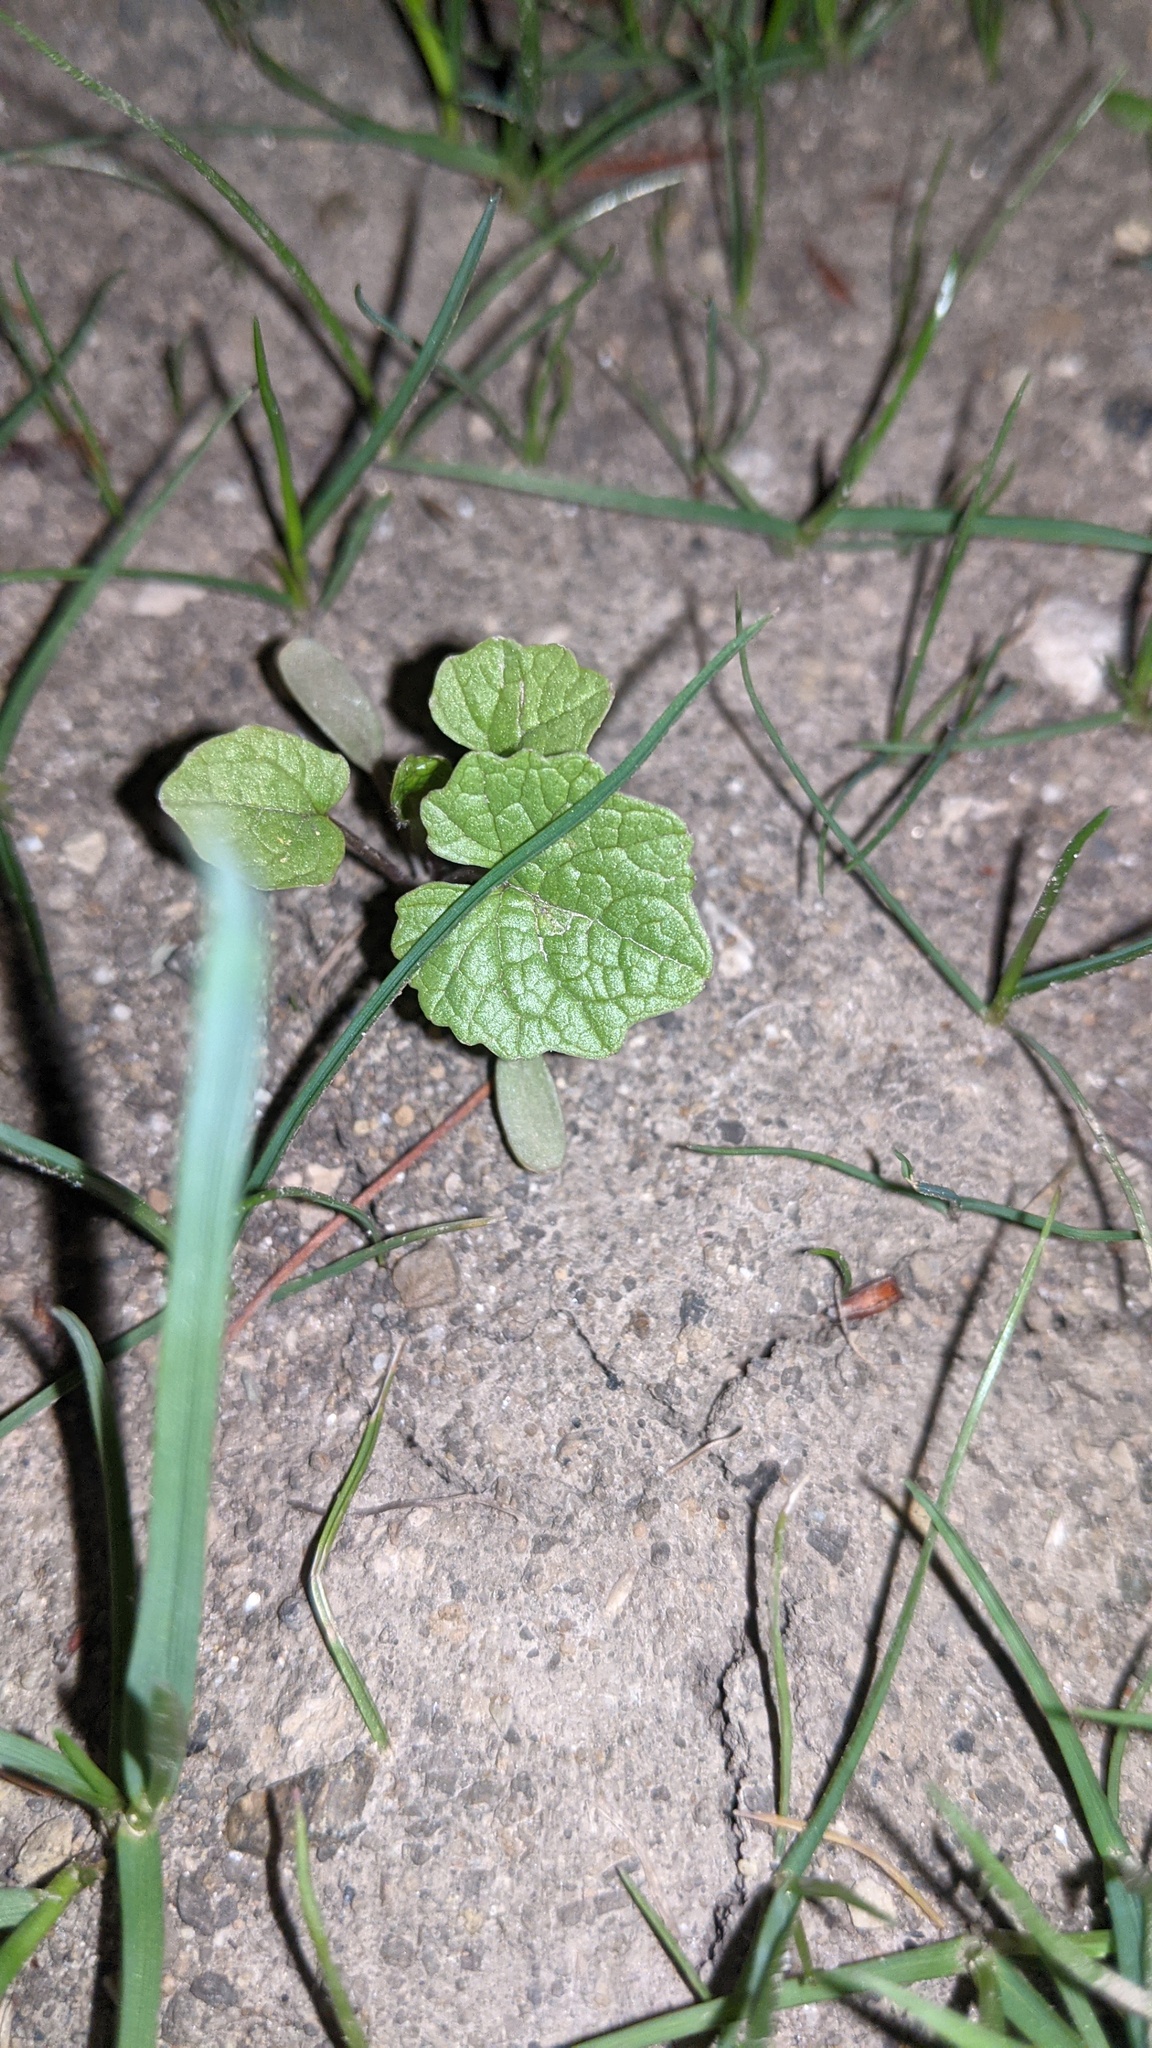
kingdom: Plantae
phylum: Tracheophyta
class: Magnoliopsida
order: Brassicales
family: Brassicaceae
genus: Alliaria
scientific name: Alliaria petiolata
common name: Garlic mustard
